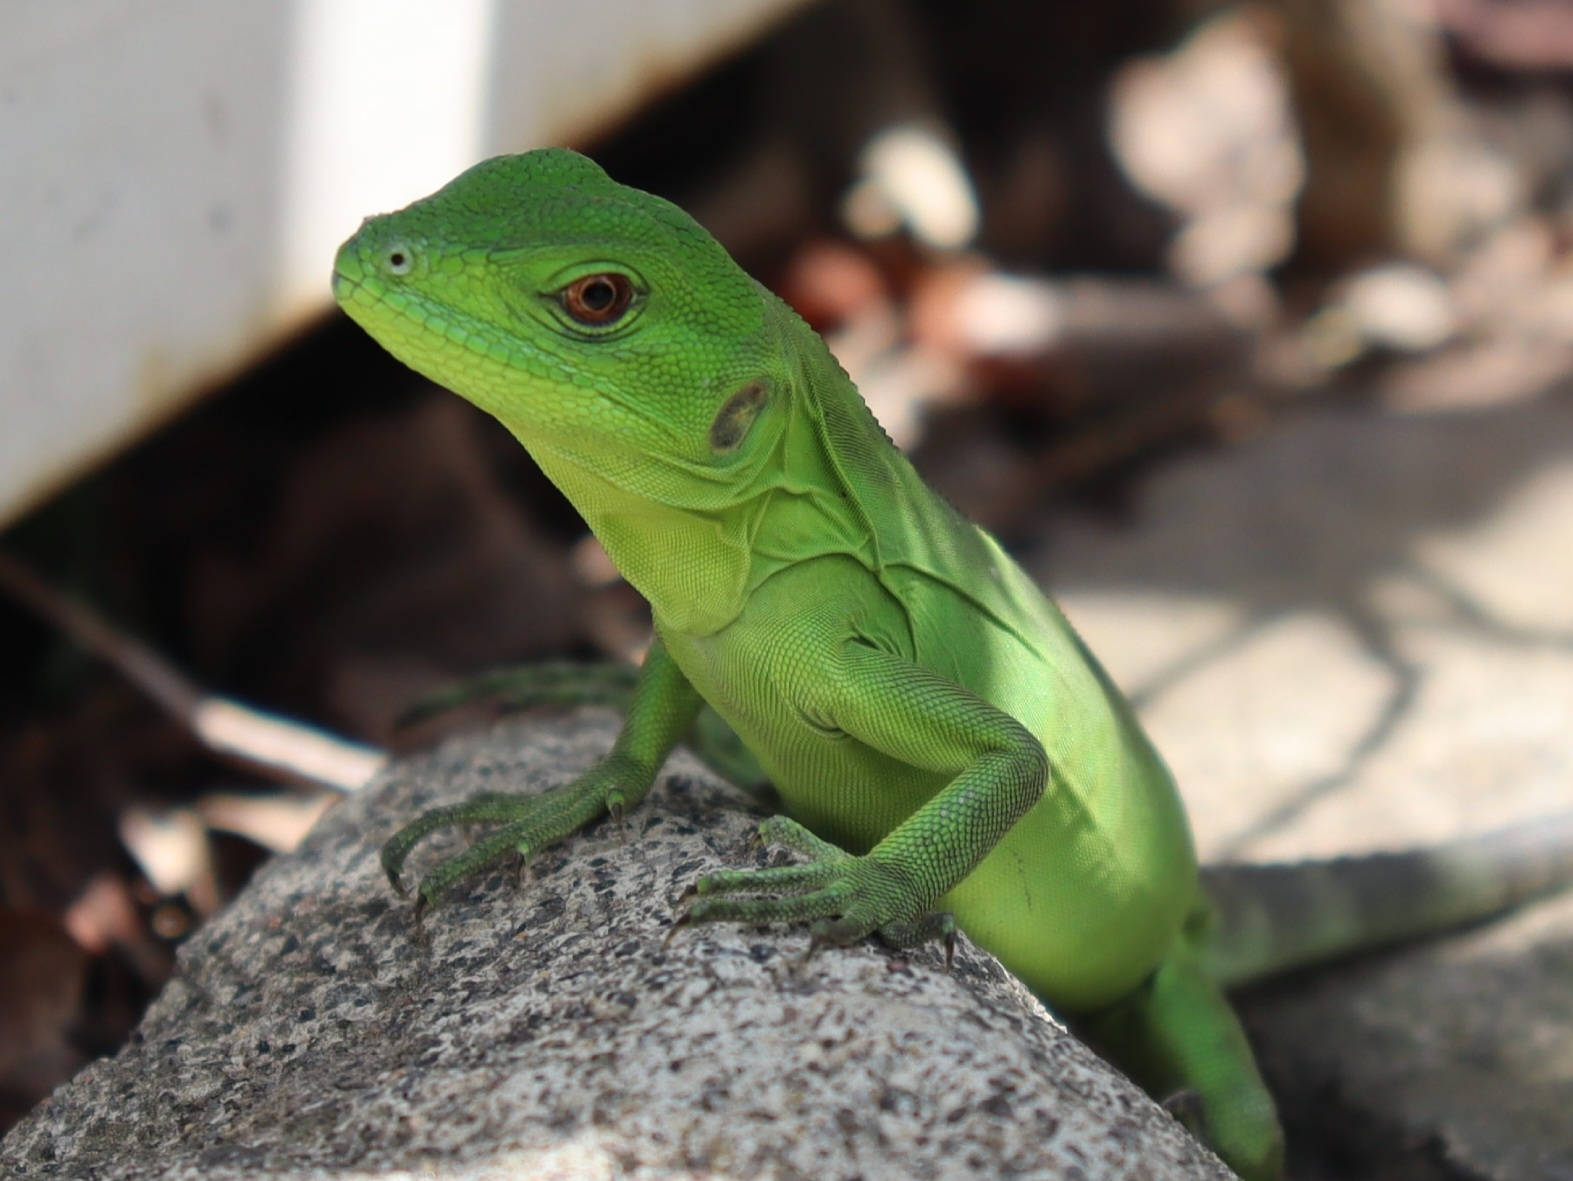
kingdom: Animalia
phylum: Chordata
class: Squamata
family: Iguanidae
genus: Ctenosaura
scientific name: Ctenosaura pectinata
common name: Guerreran spiny-tailed iguana
